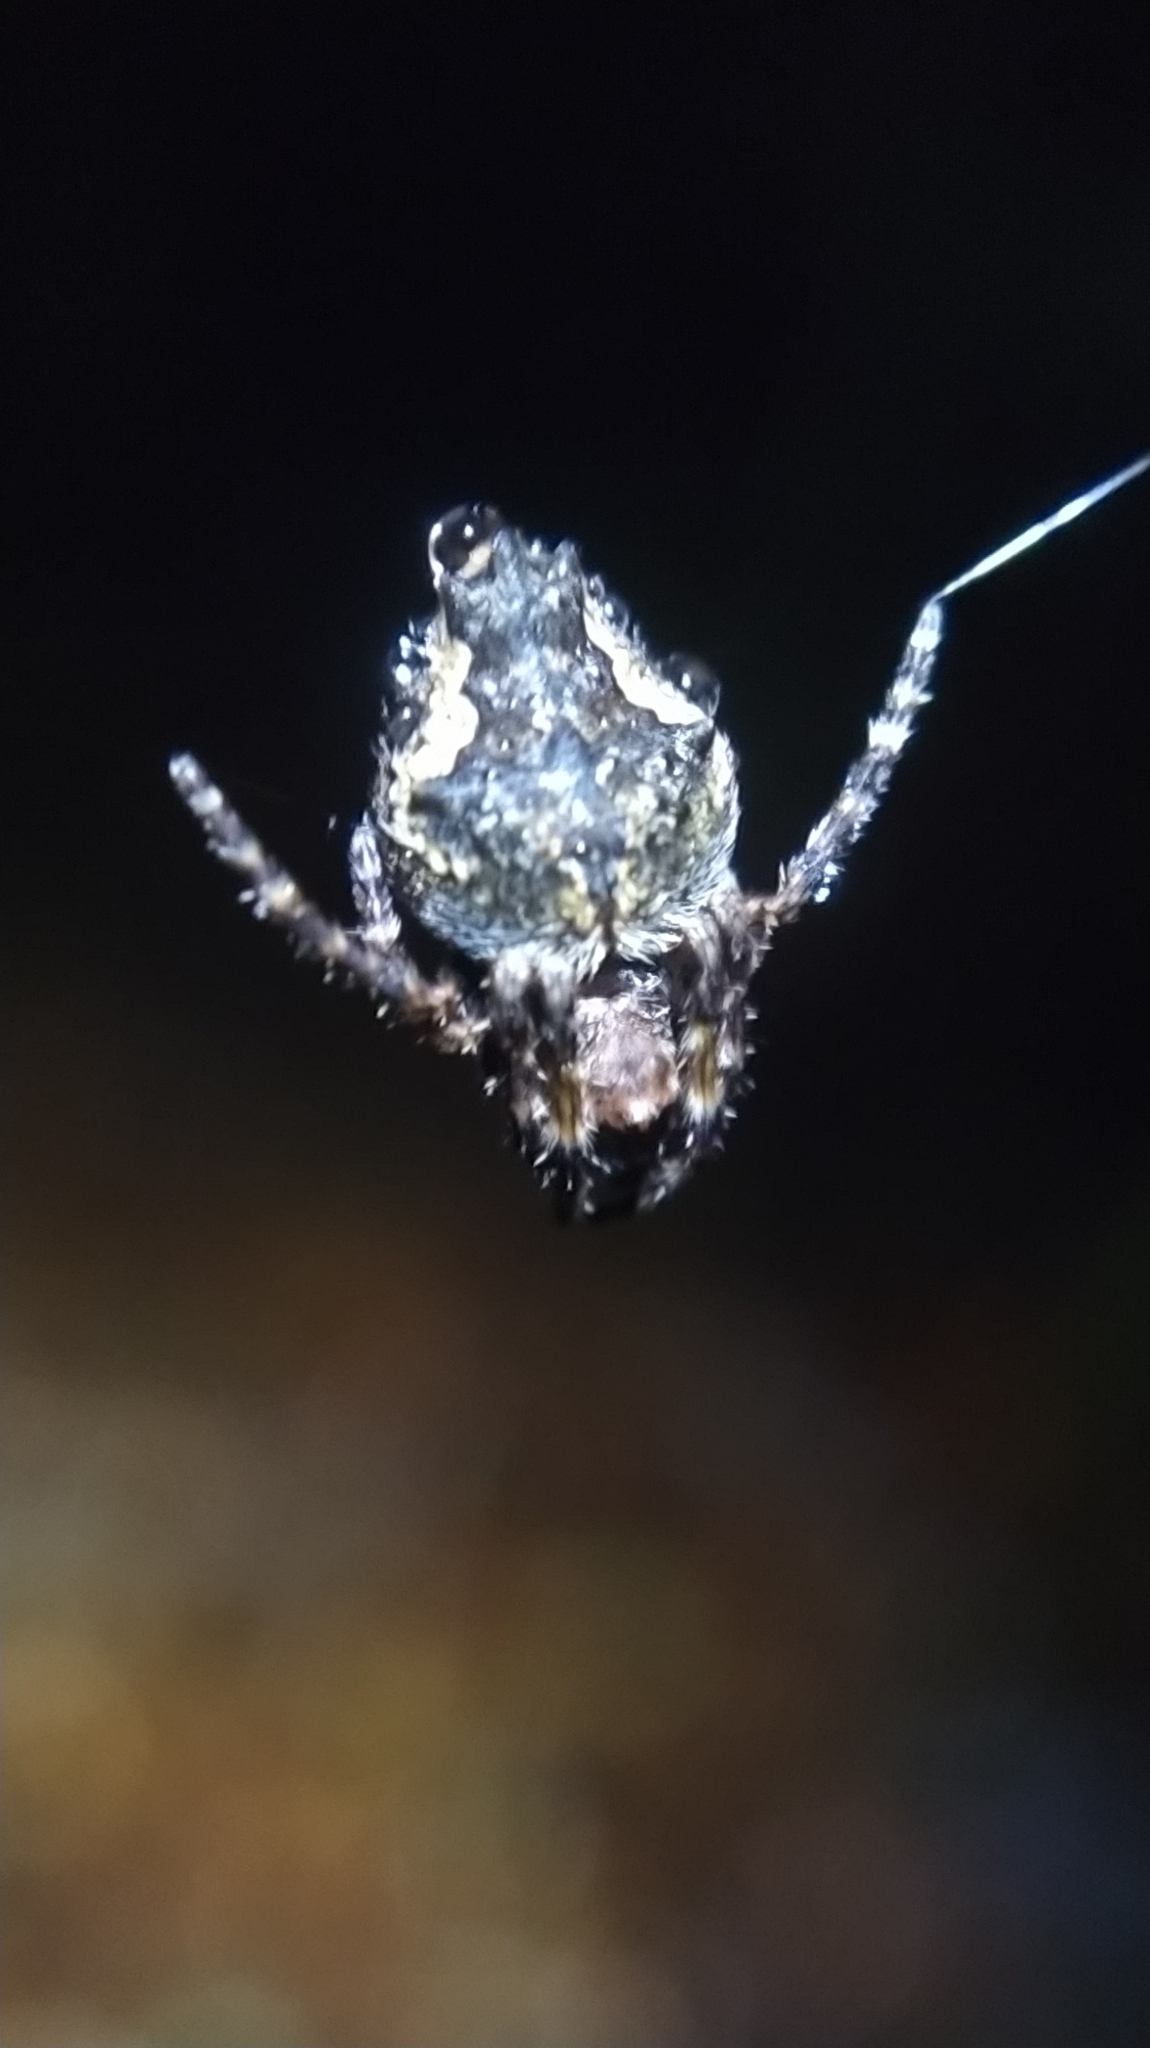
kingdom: Animalia
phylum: Arthropoda
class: Arachnida
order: Araneae
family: Araneidae
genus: Eriophora
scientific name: Eriophora pustulosa
